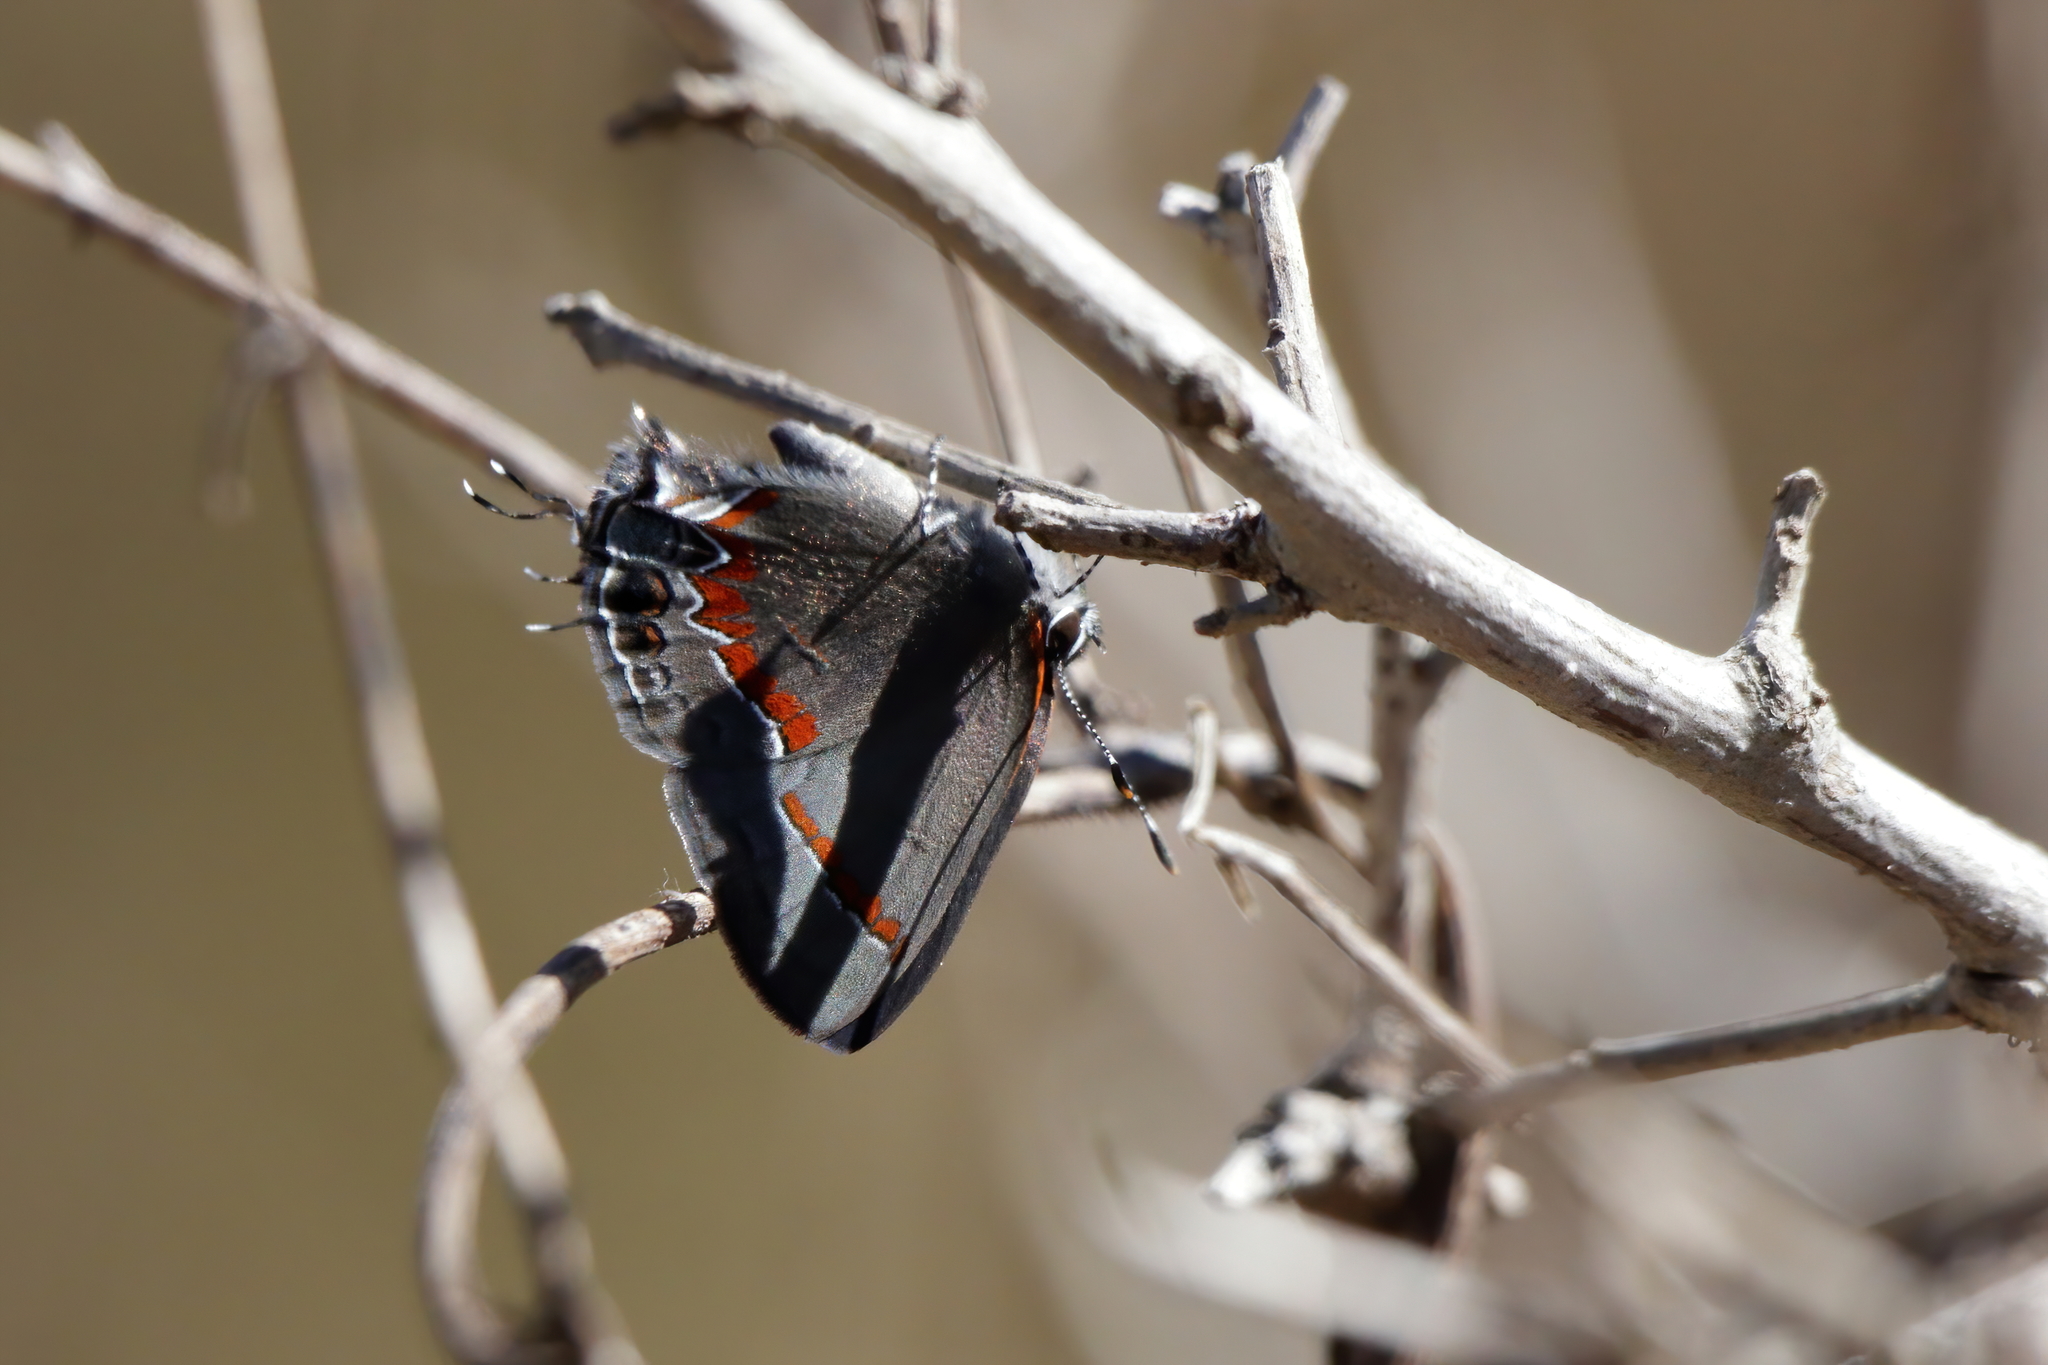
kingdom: Animalia
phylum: Arthropoda
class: Insecta
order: Lepidoptera
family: Lycaenidae
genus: Calycopis
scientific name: Calycopis cecrops
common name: Red-banded hairstreak
